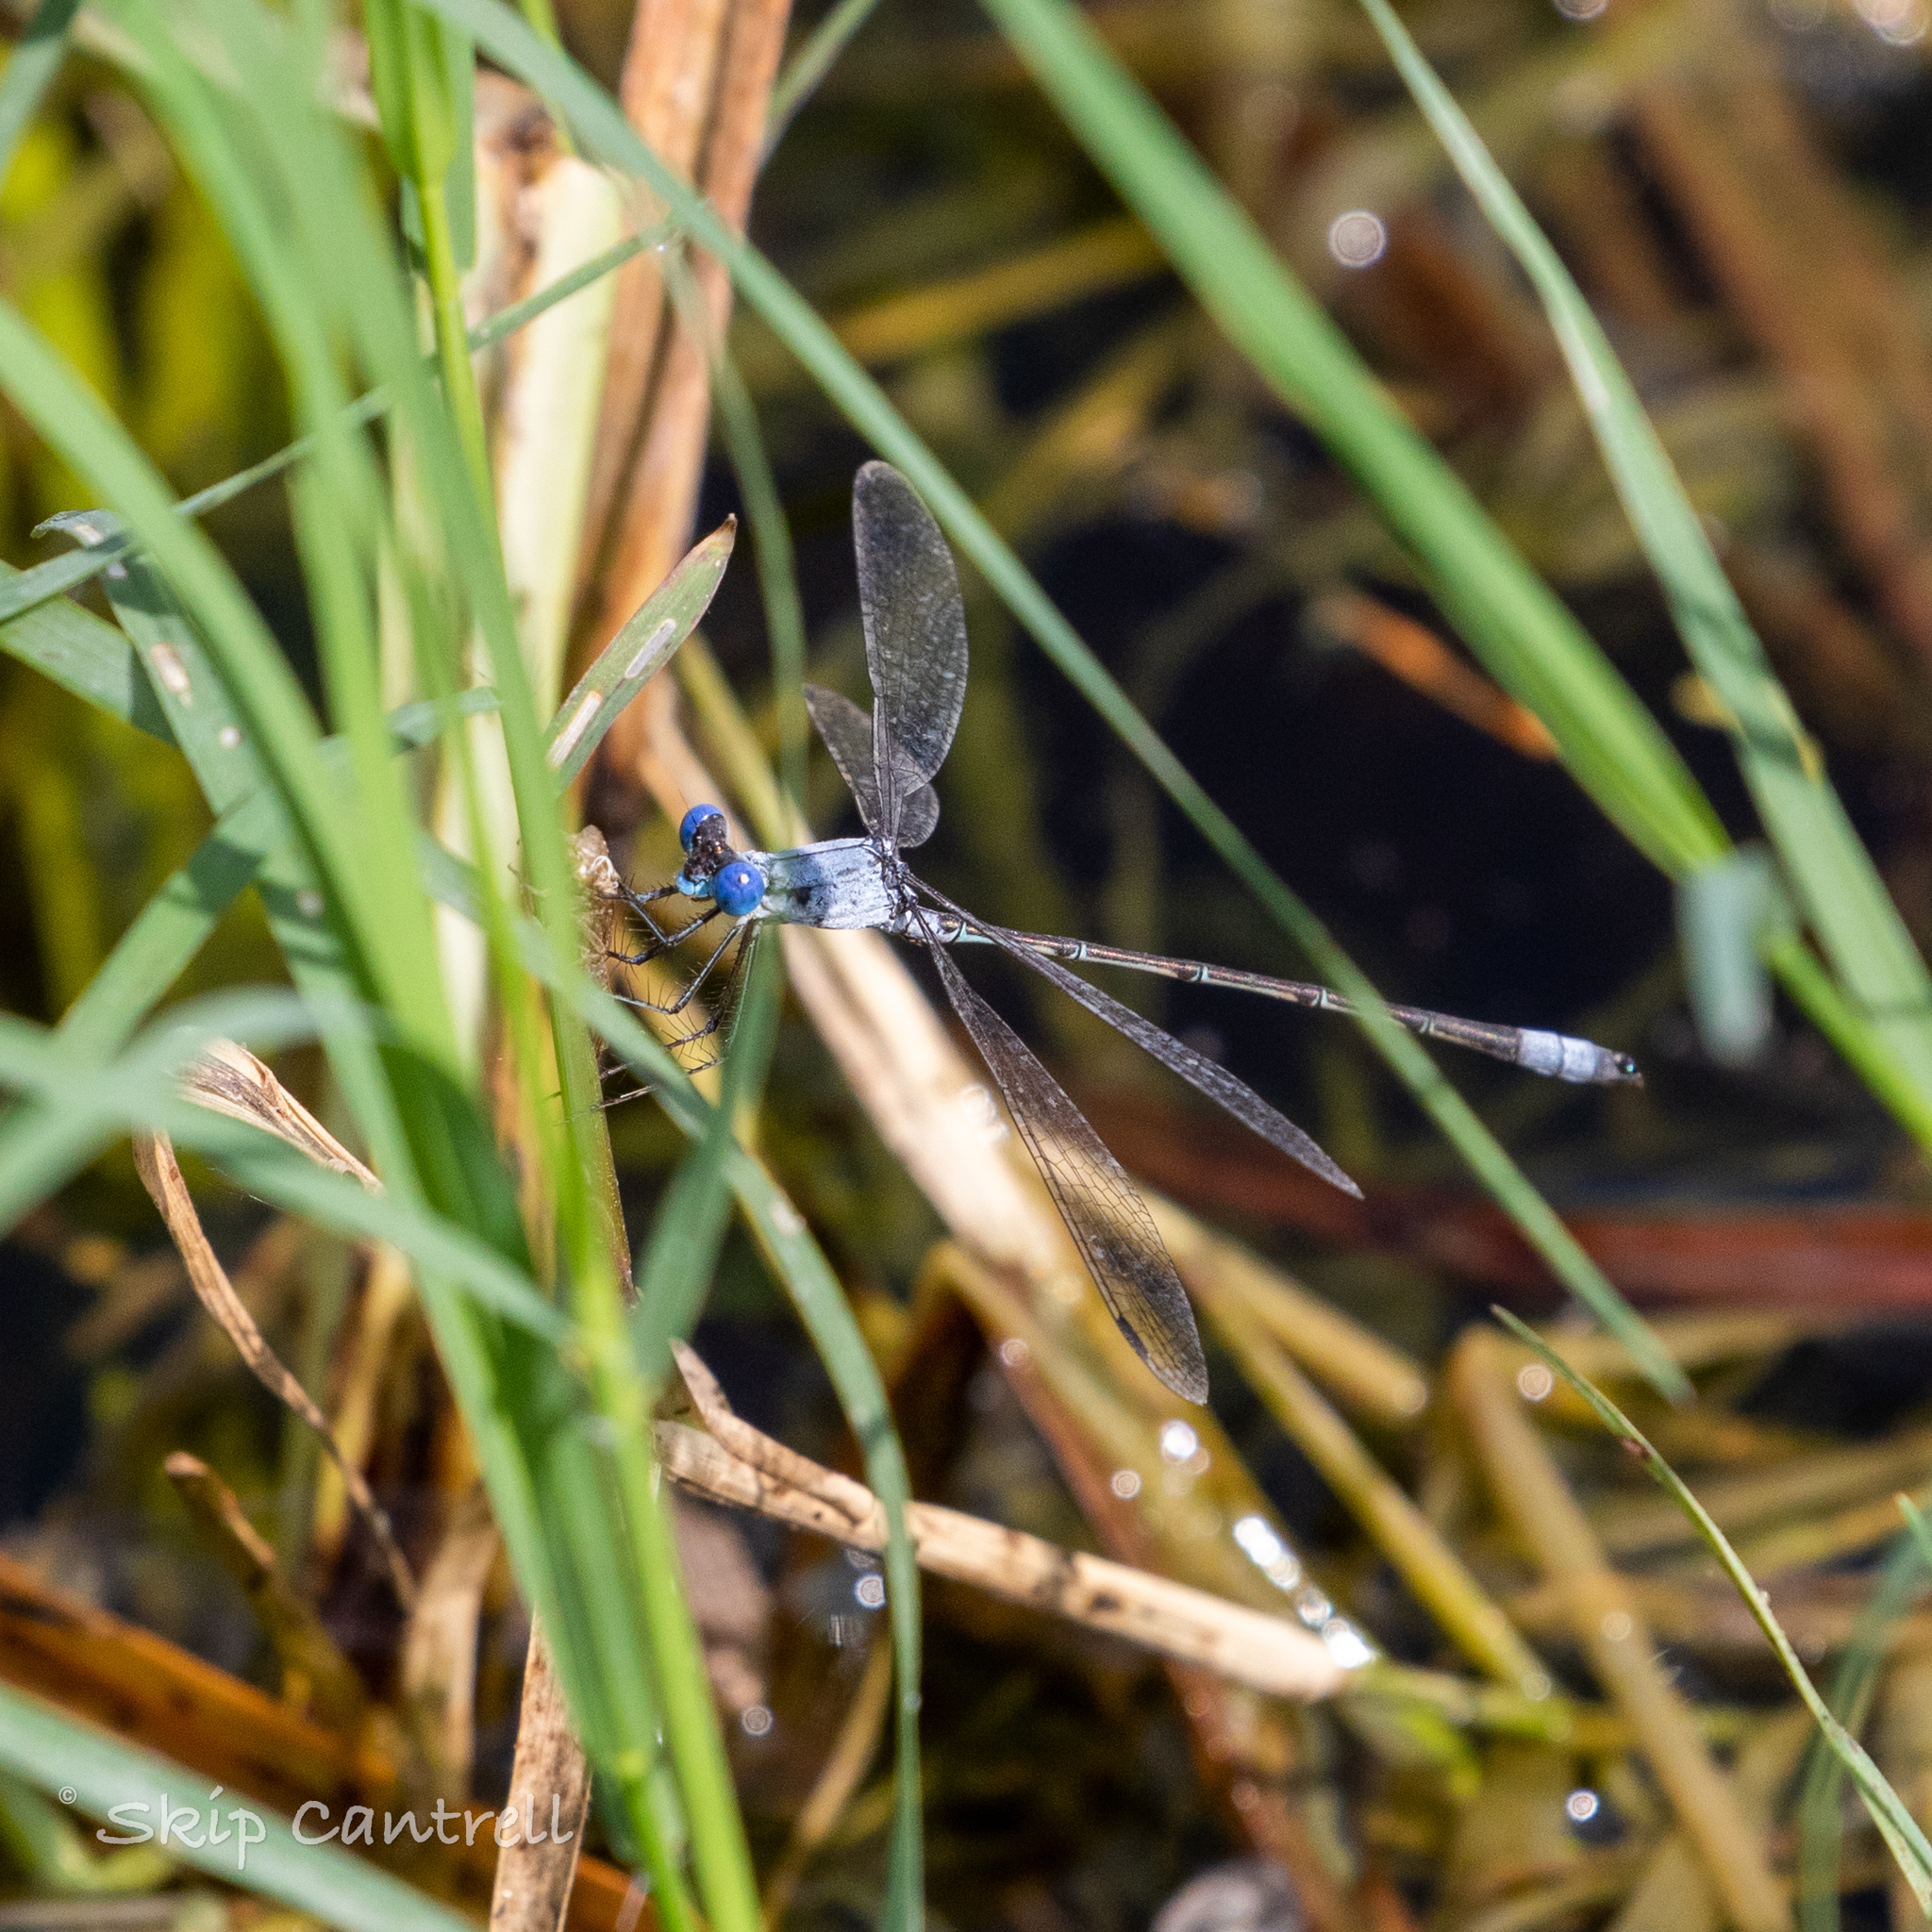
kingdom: Animalia
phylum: Arthropoda
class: Insecta
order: Odonata
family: Lestidae
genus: Lestes
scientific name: Lestes sigma
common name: Chalky spreadwing
